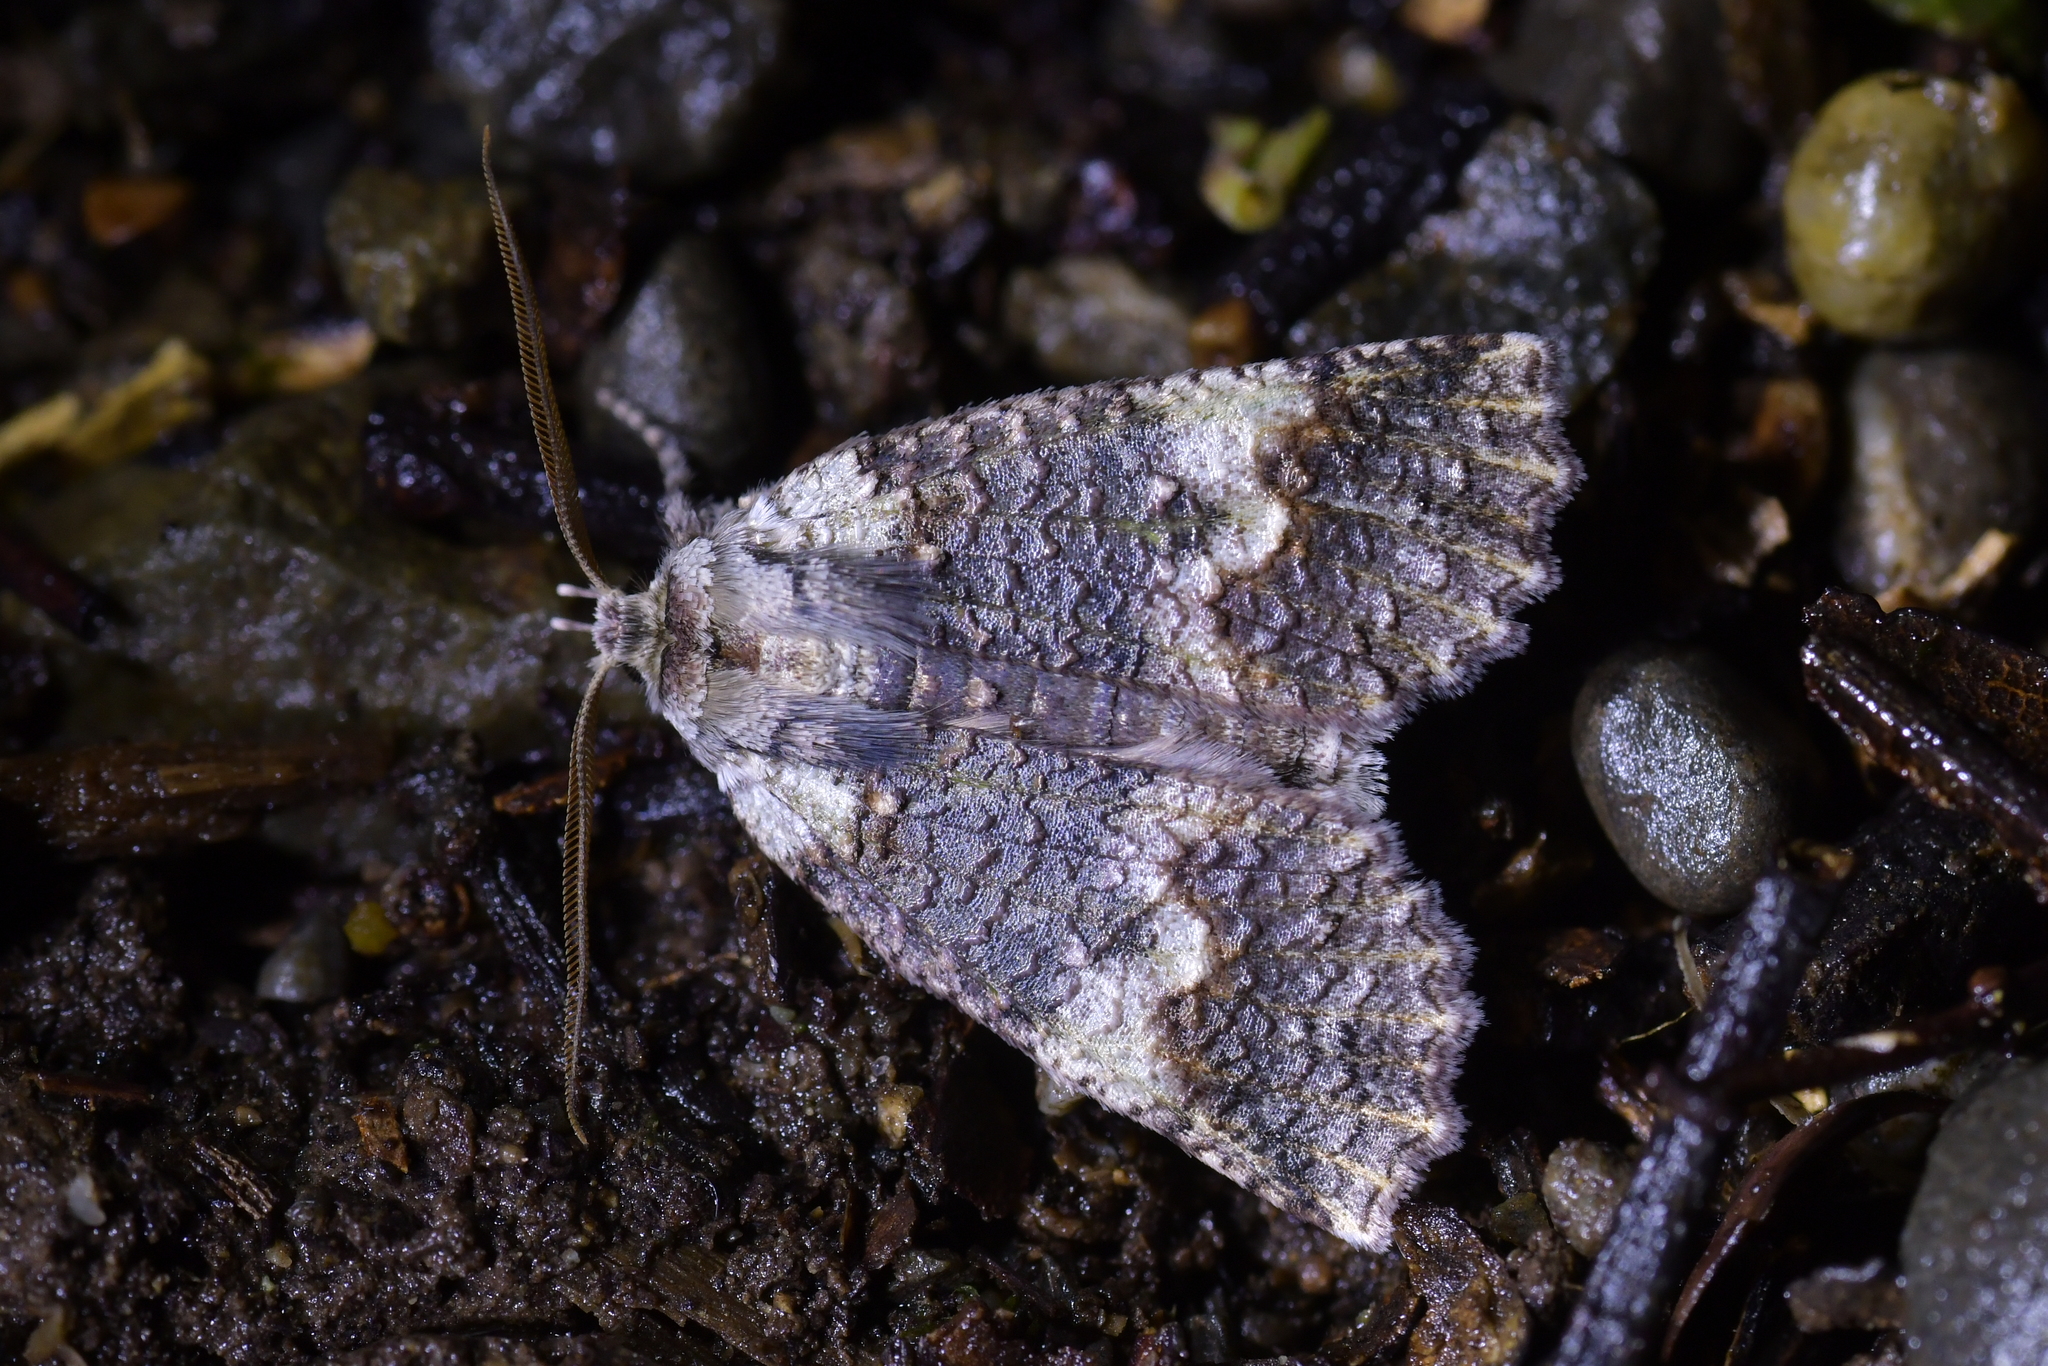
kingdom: Animalia
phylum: Arthropoda
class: Insecta
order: Lepidoptera
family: Geometridae
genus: Declana
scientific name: Declana floccosa
